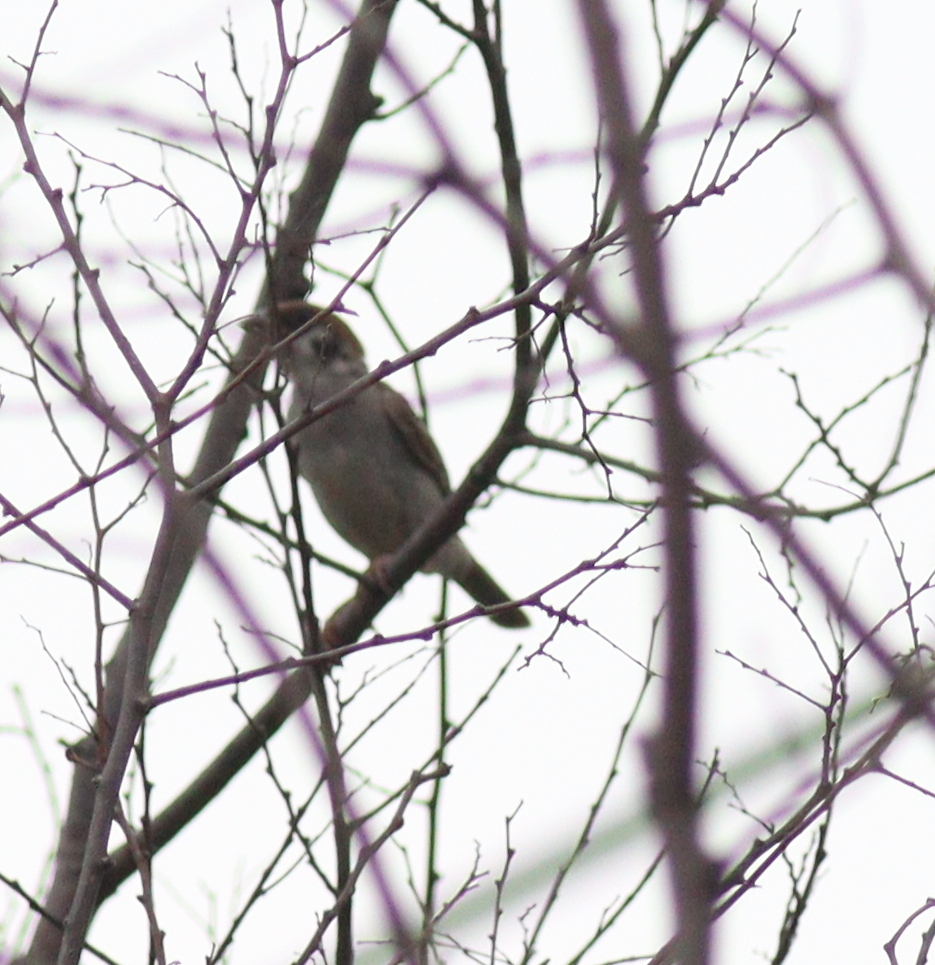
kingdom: Animalia
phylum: Chordata
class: Aves
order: Passeriformes
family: Passeridae
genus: Passer
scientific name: Passer montanus
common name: Eurasian tree sparrow
